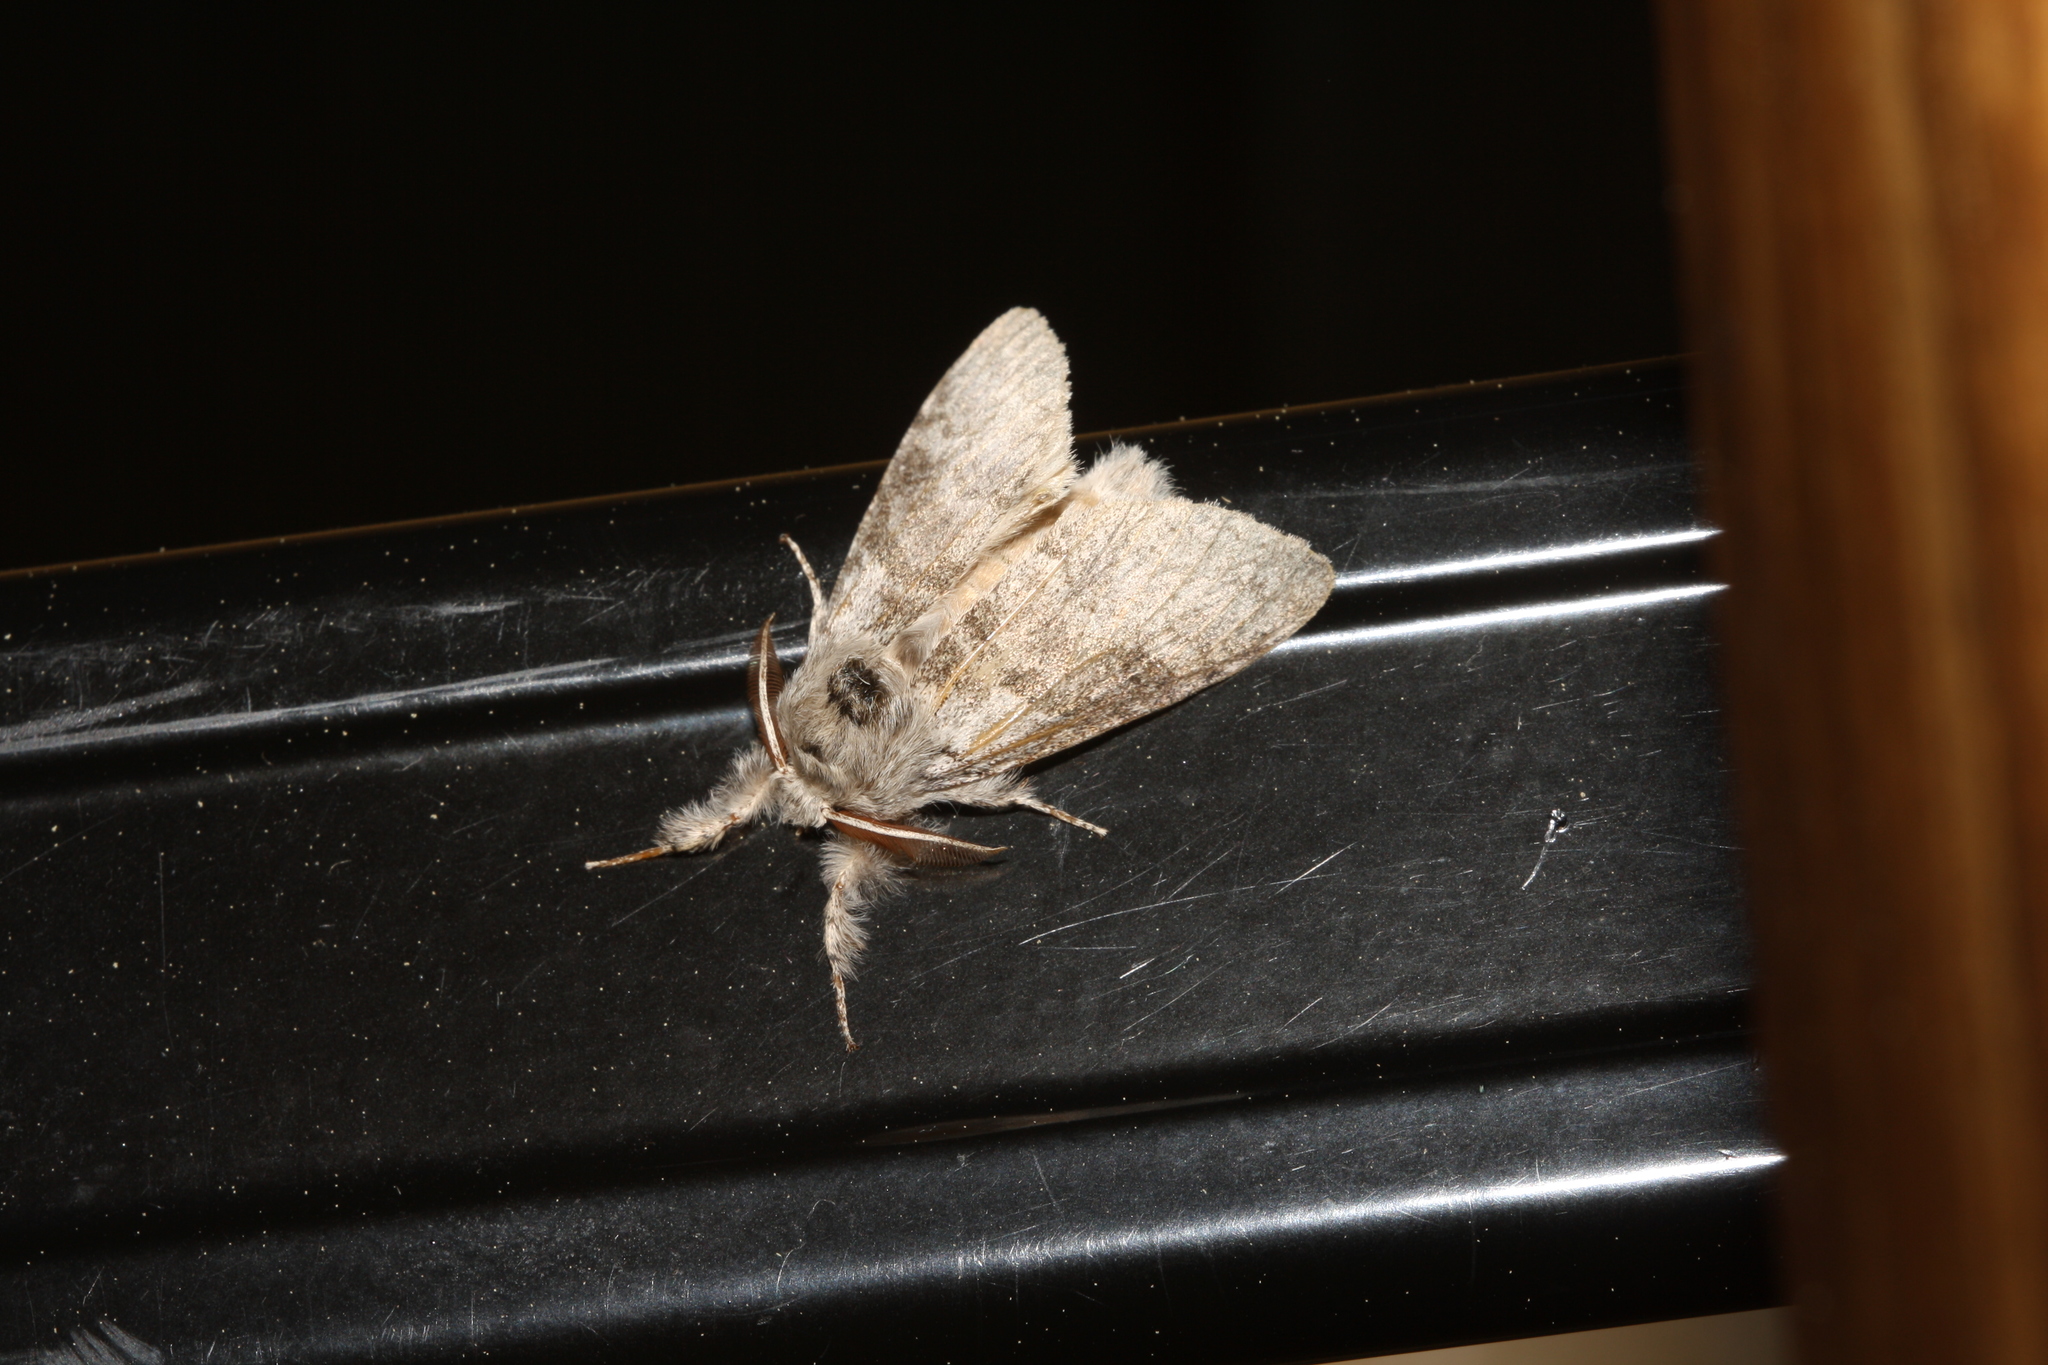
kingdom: Animalia
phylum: Arthropoda
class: Insecta
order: Lepidoptera
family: Erebidae
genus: Calliteara
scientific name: Calliteara pudibunda
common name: Pale tussock
